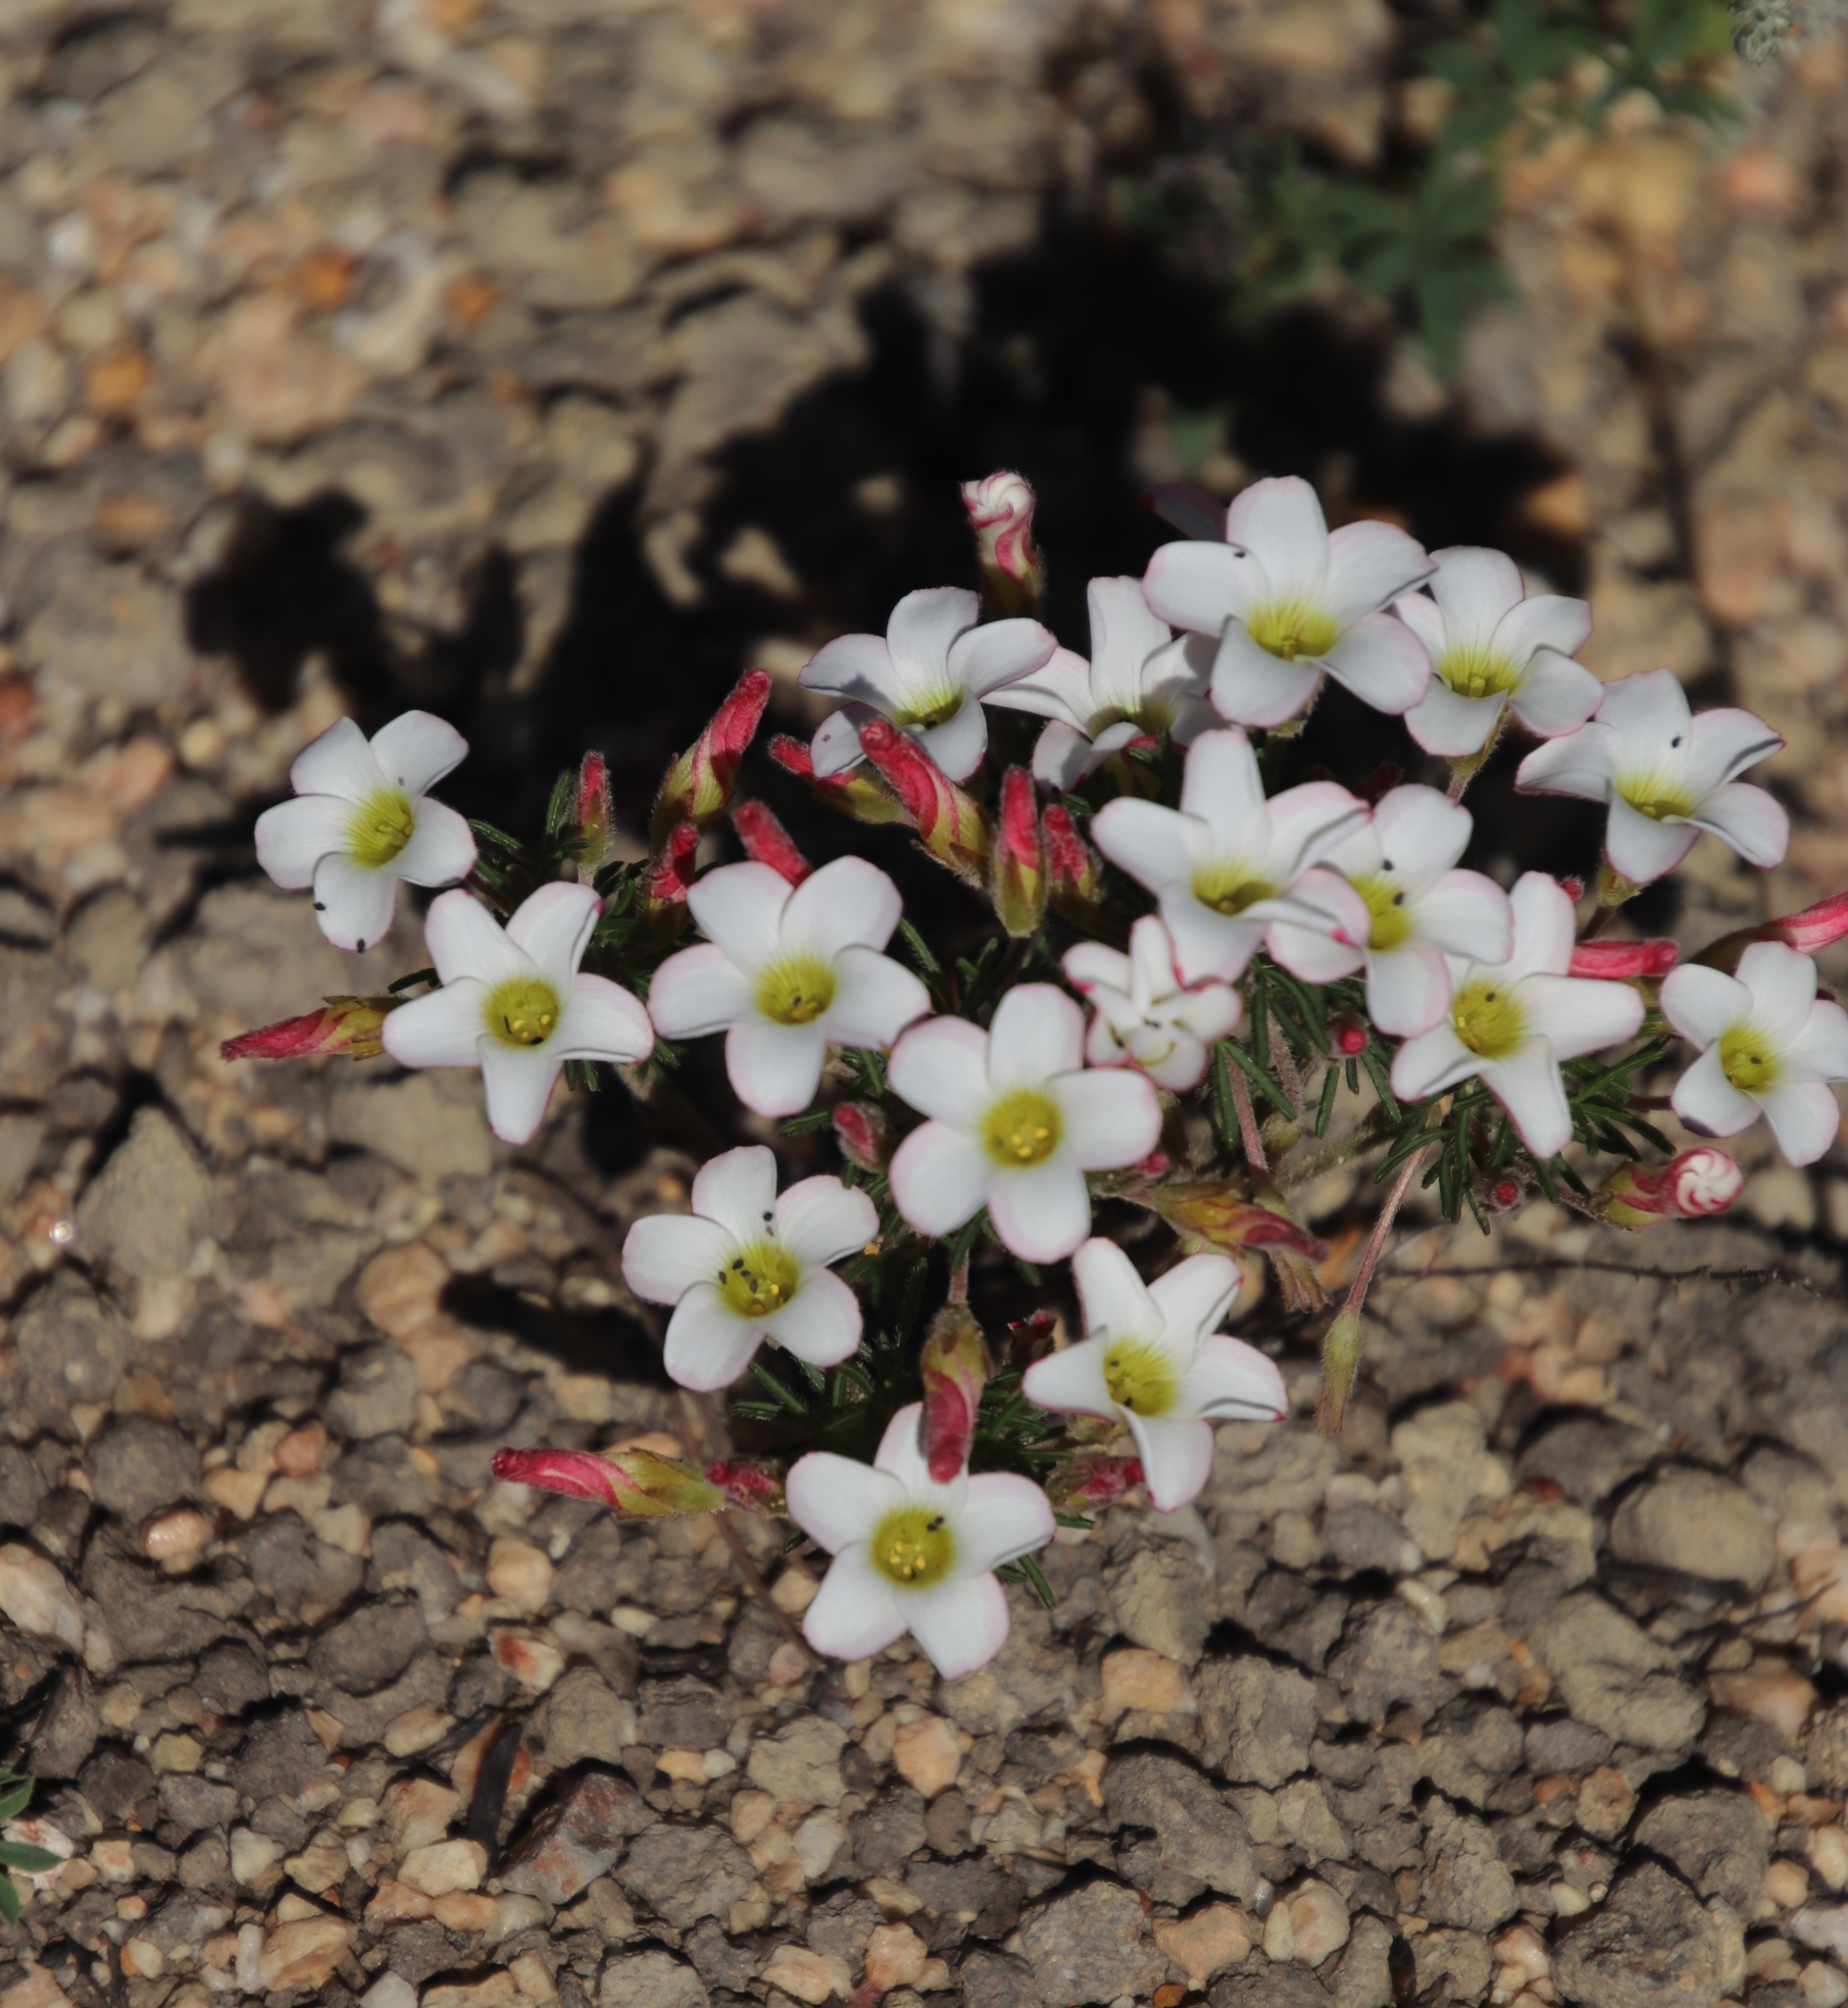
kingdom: Plantae
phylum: Tracheophyta
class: Magnoliopsida
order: Oxalidales
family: Oxalidaceae
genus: Oxalis
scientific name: Oxalis tenuifolia
